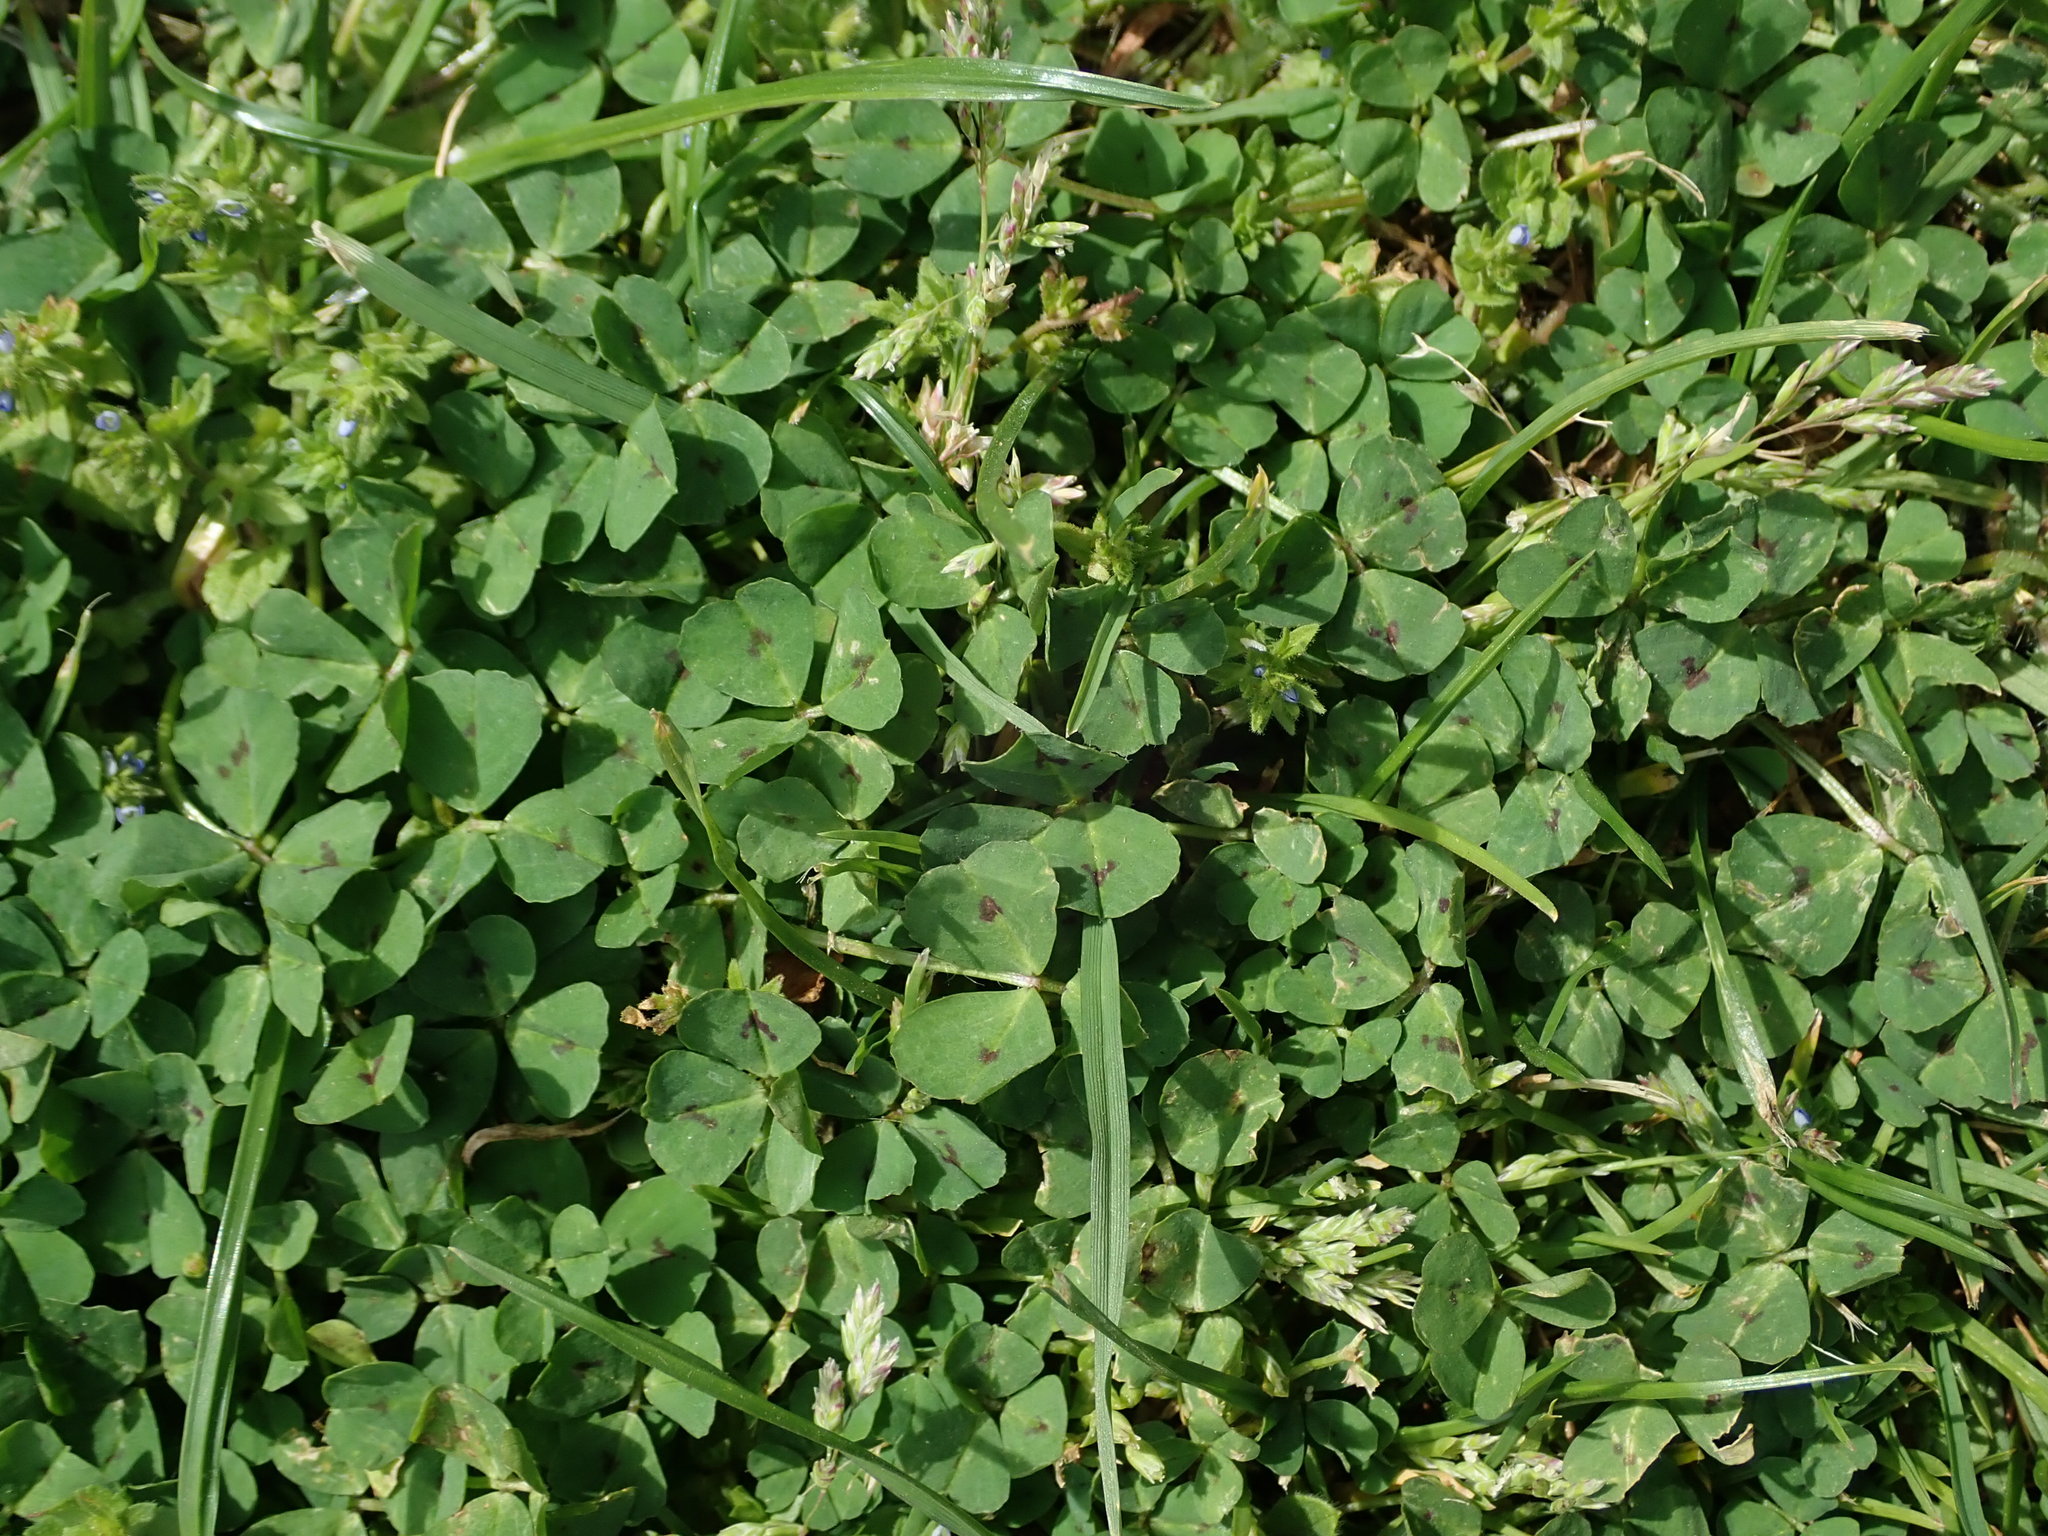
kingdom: Plantae
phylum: Tracheophyta
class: Magnoliopsida
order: Fabales
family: Fabaceae
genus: Medicago
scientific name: Medicago arabica
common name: Spotted medick
